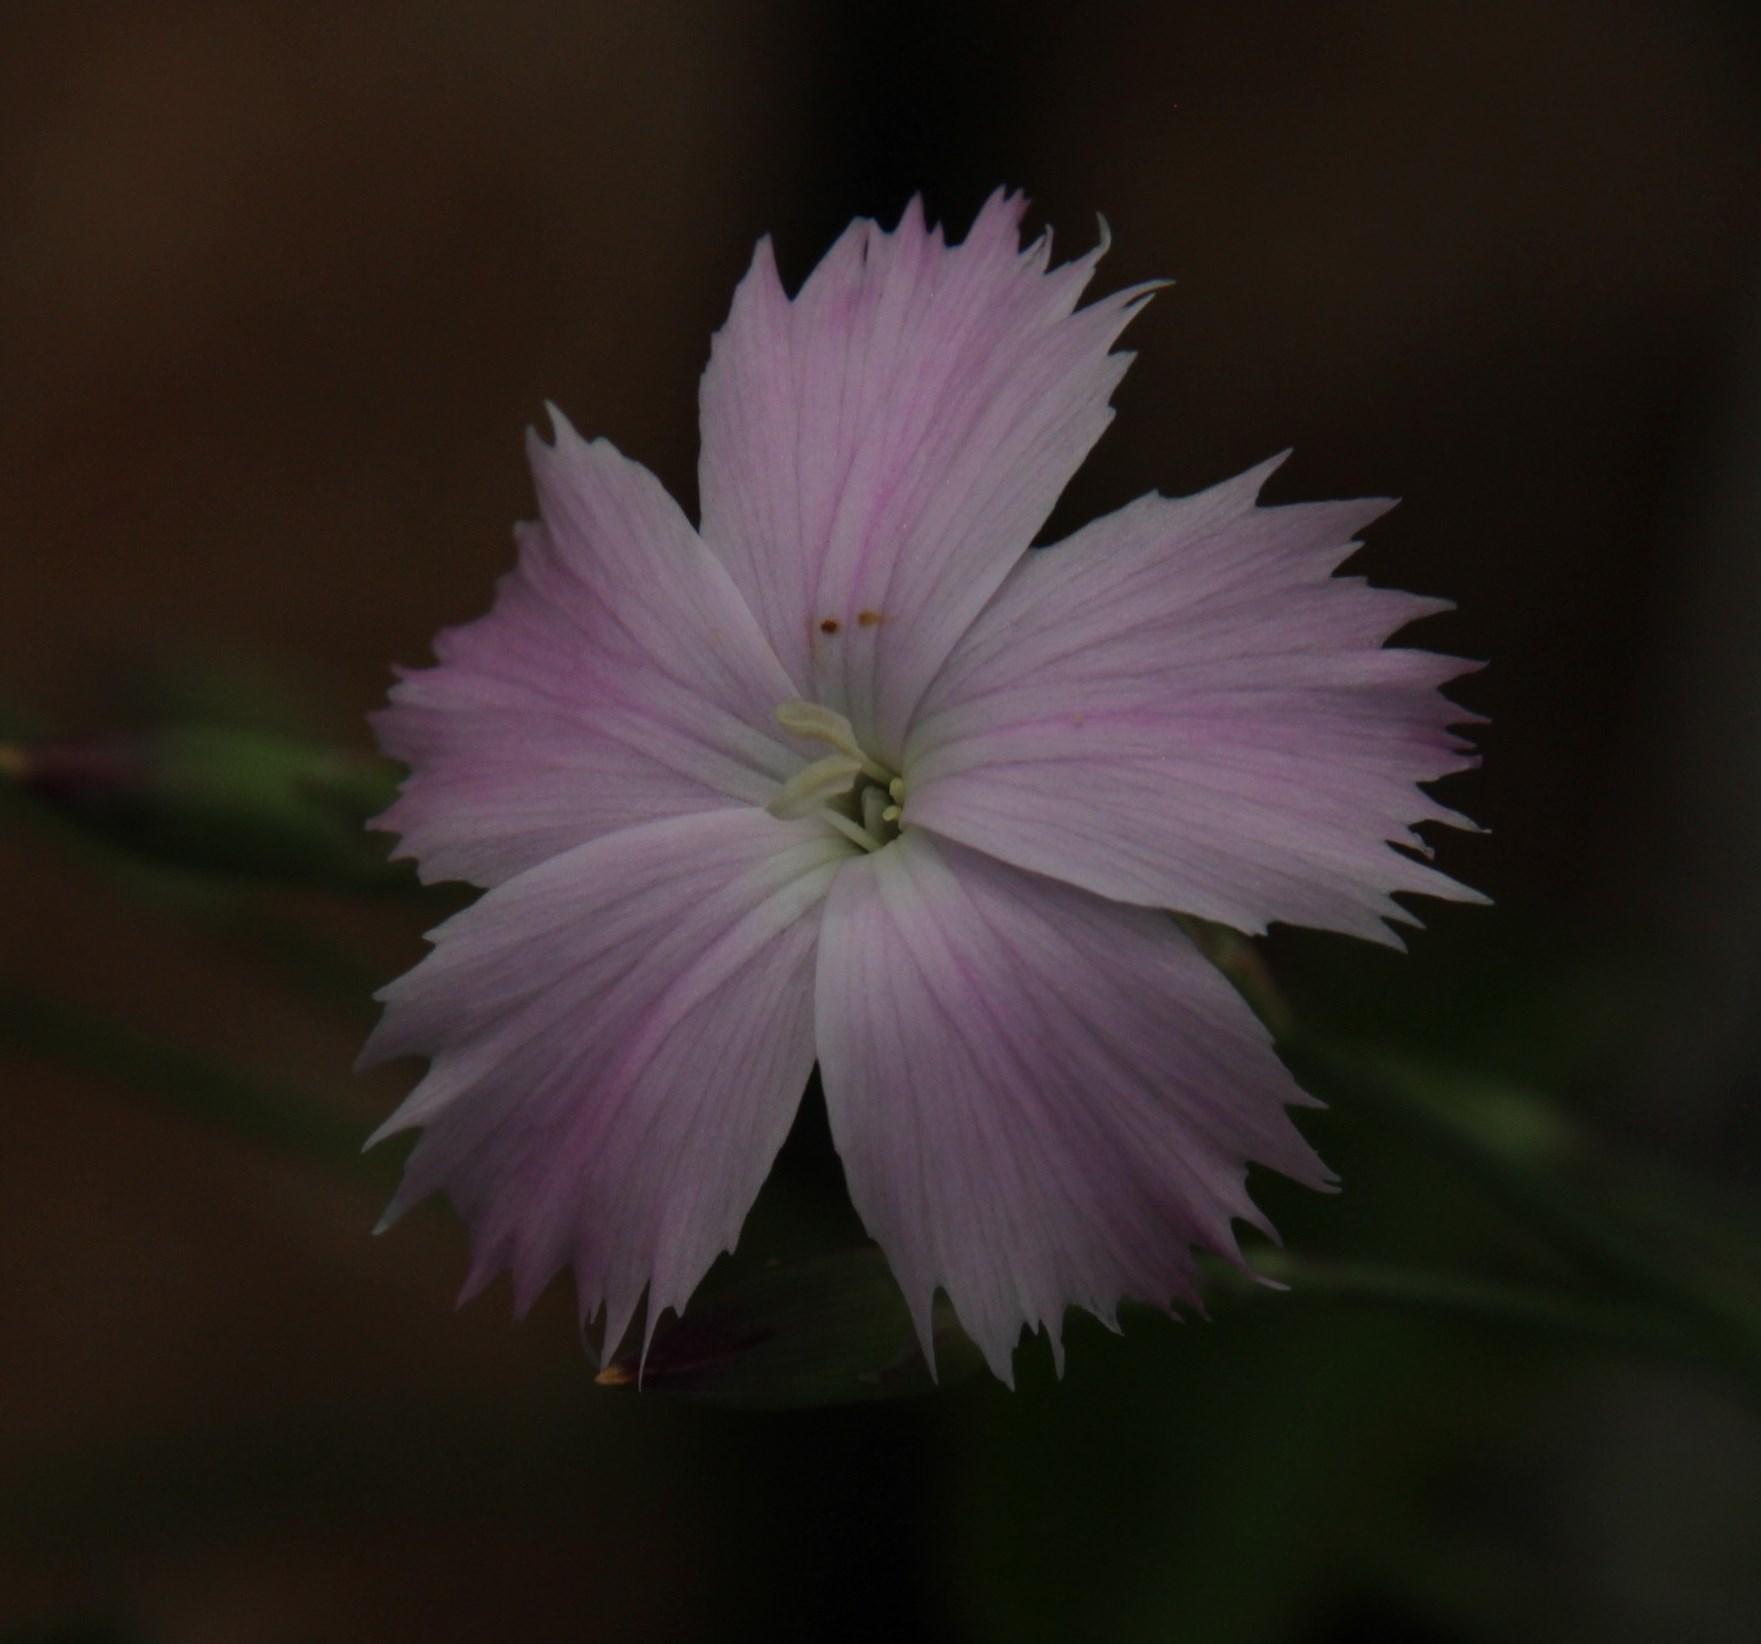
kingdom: Plantae
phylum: Tracheophyta
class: Magnoliopsida
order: Caryophyllales
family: Caryophyllaceae
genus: Dianthus
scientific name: Dianthus mooiensis
